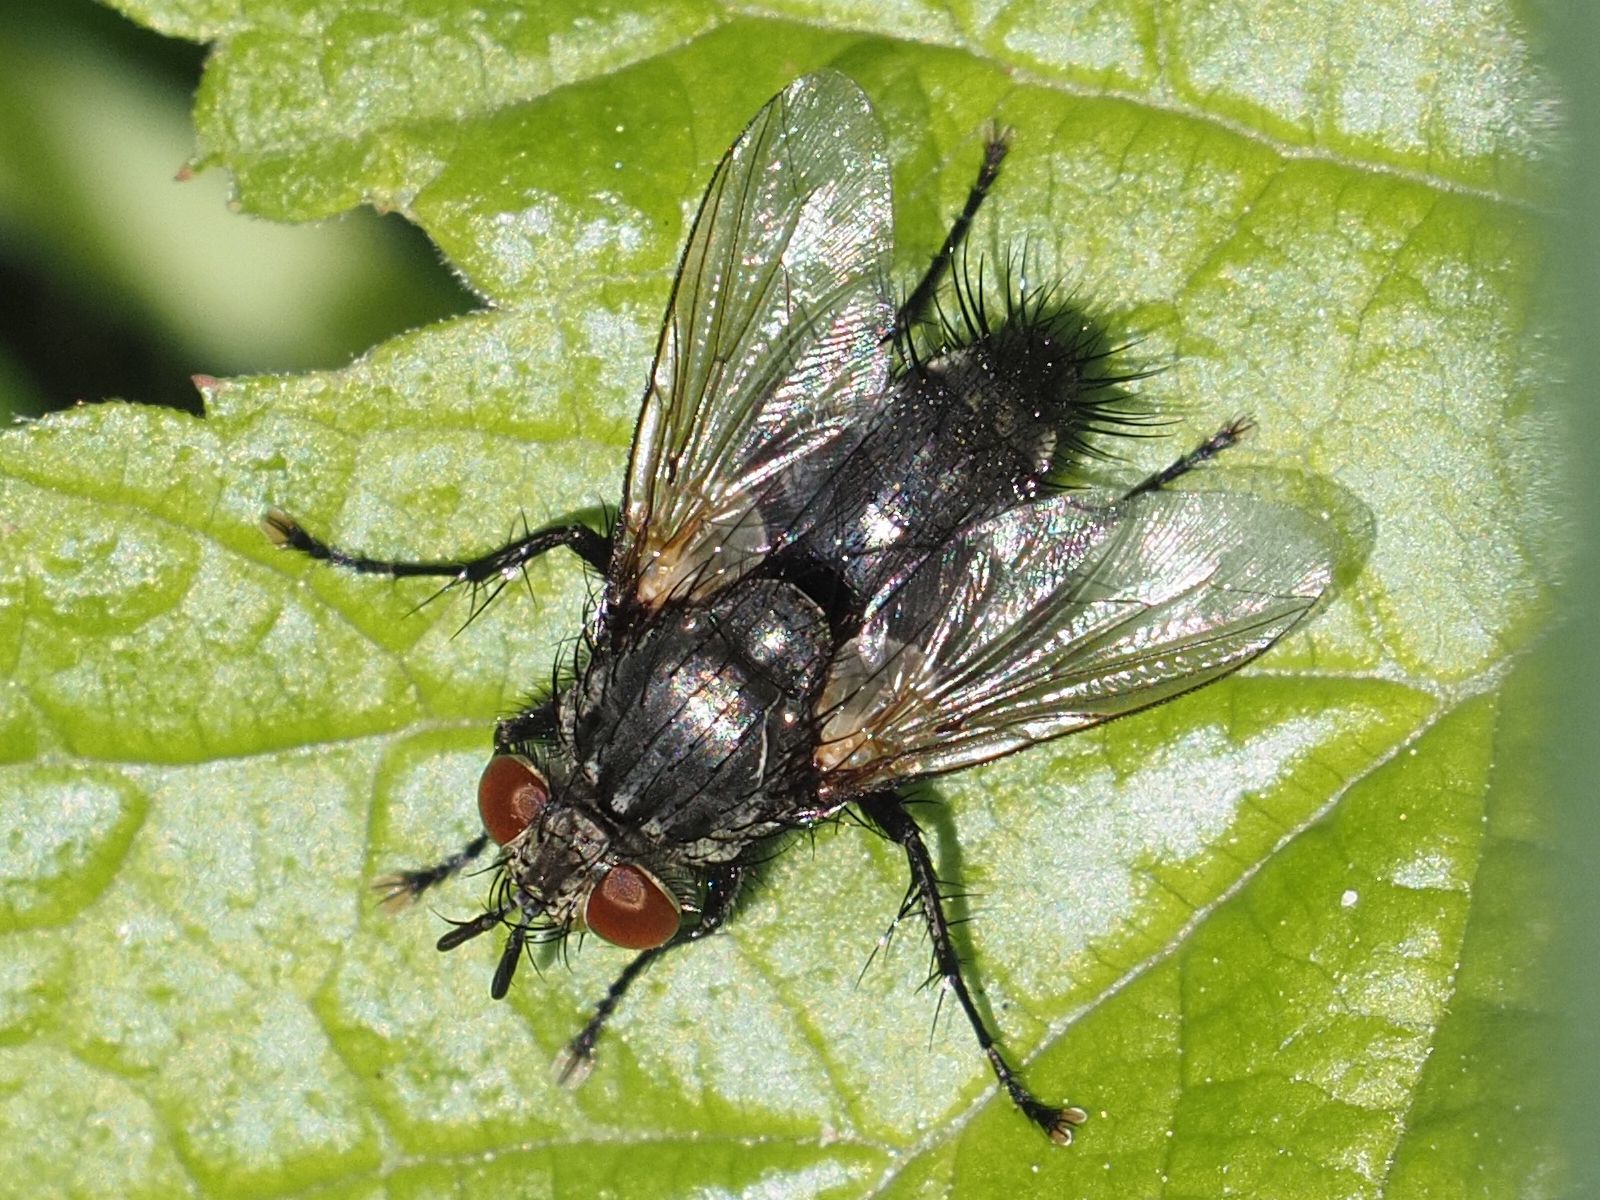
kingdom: Animalia
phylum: Arthropoda
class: Insecta
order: Diptera
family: Tachinidae
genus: Voria
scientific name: Voria ruralis
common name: Parasitic fly
